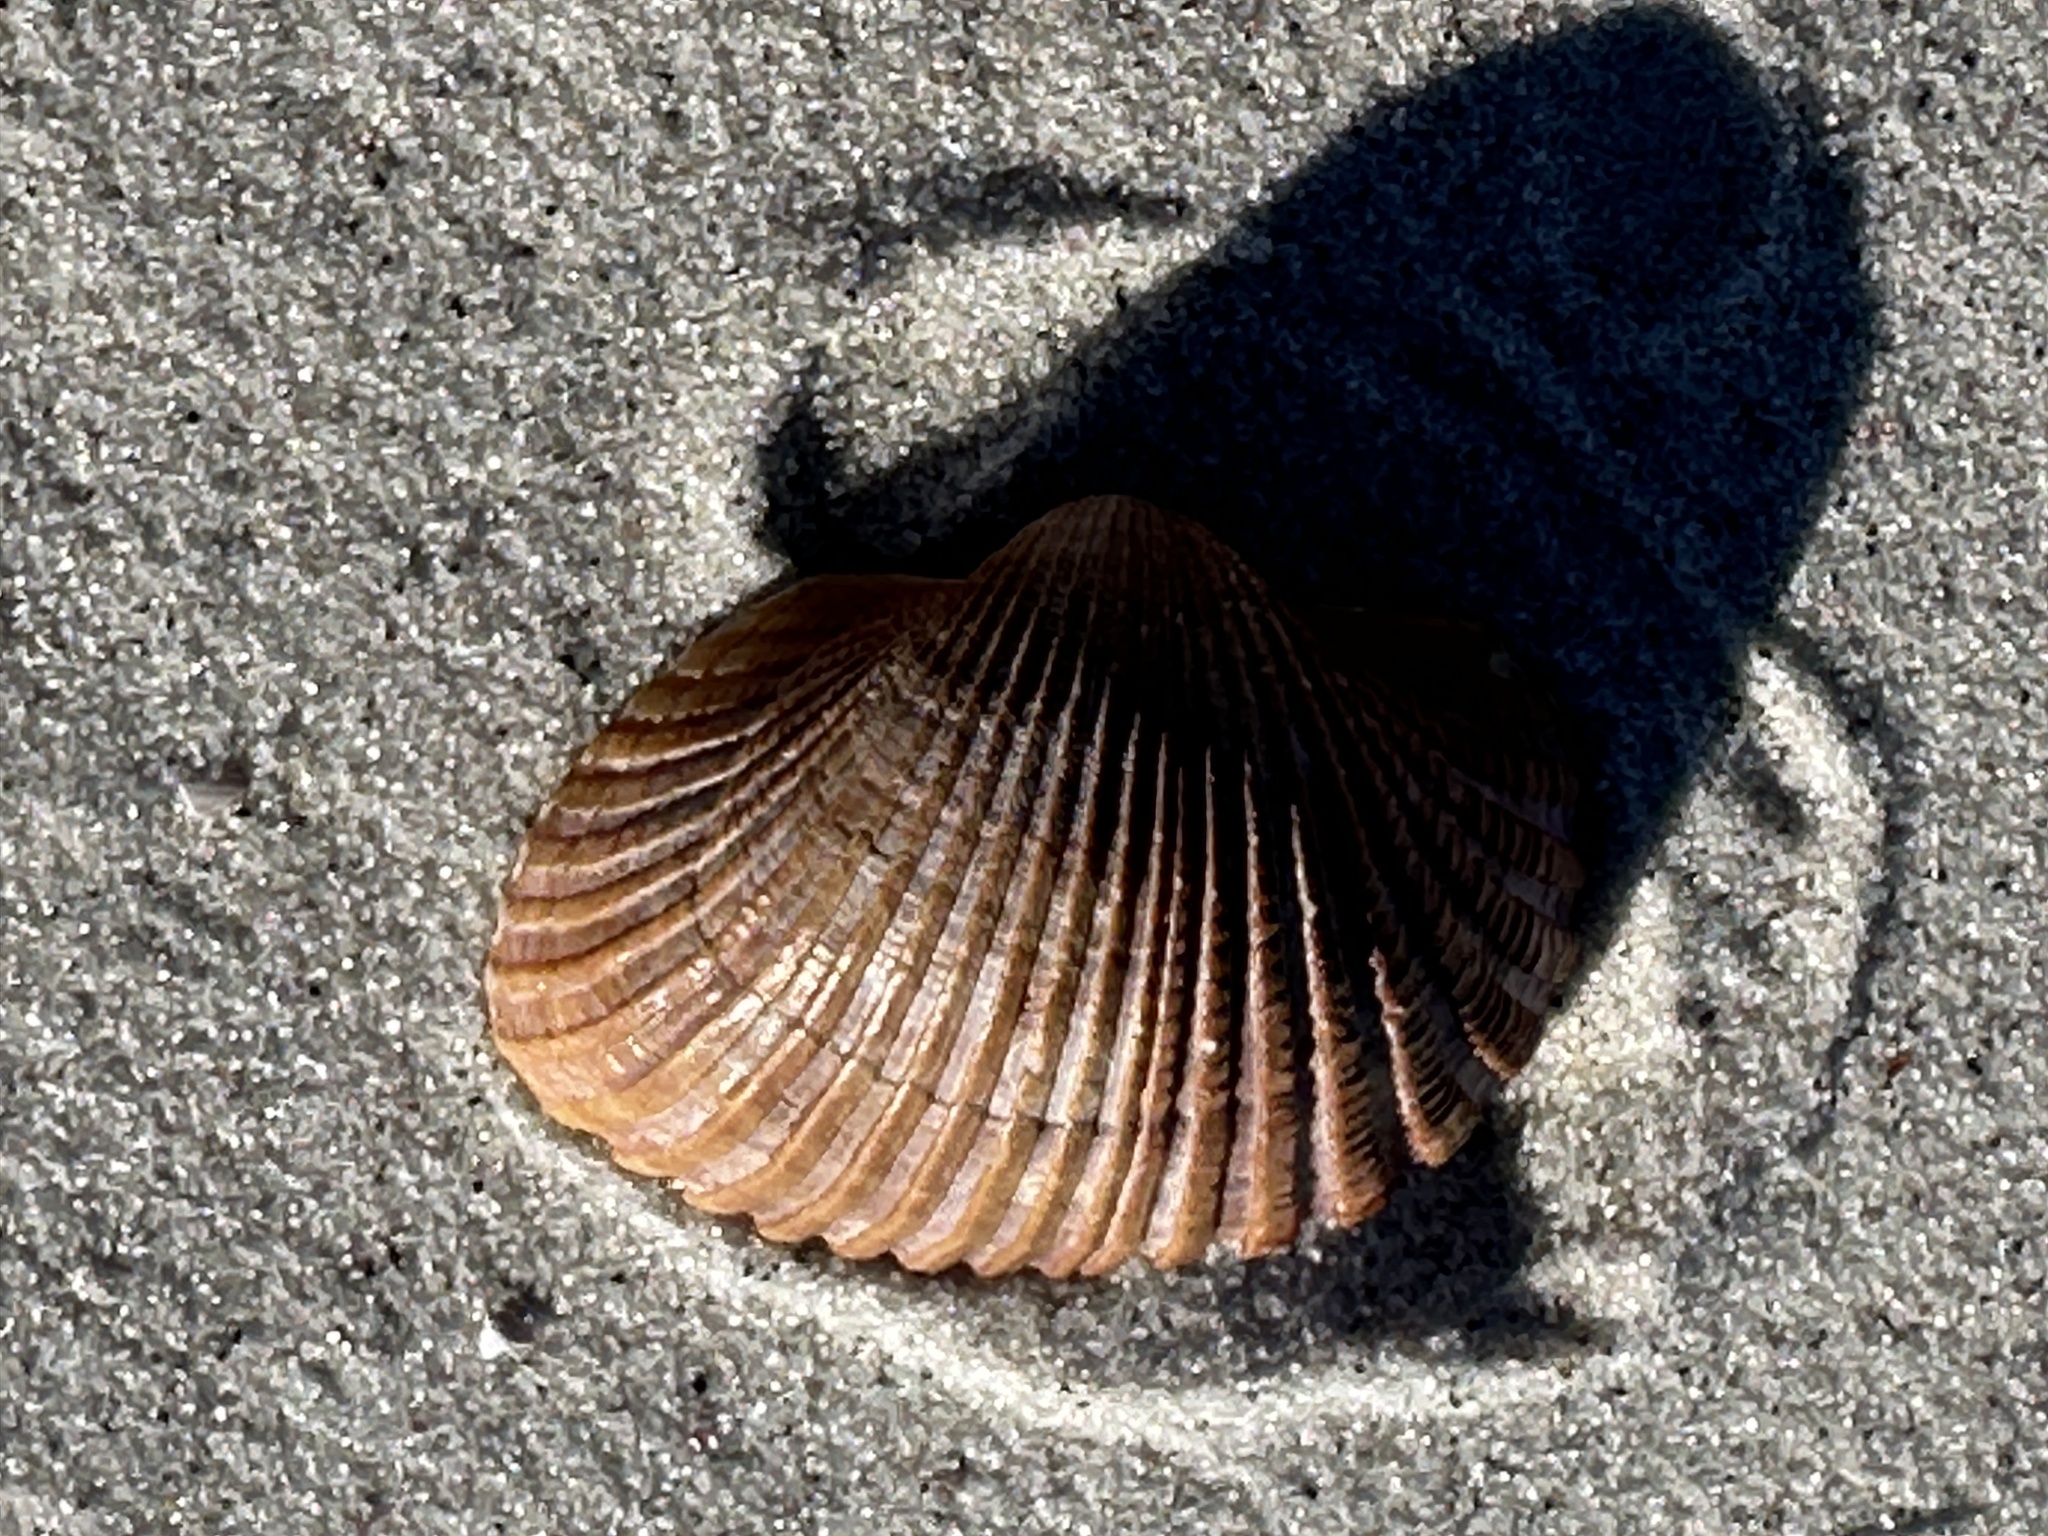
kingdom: Animalia
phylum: Mollusca
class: Bivalvia
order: Arcida
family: Arcidae
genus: Anadara
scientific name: Anadara brasiliana
